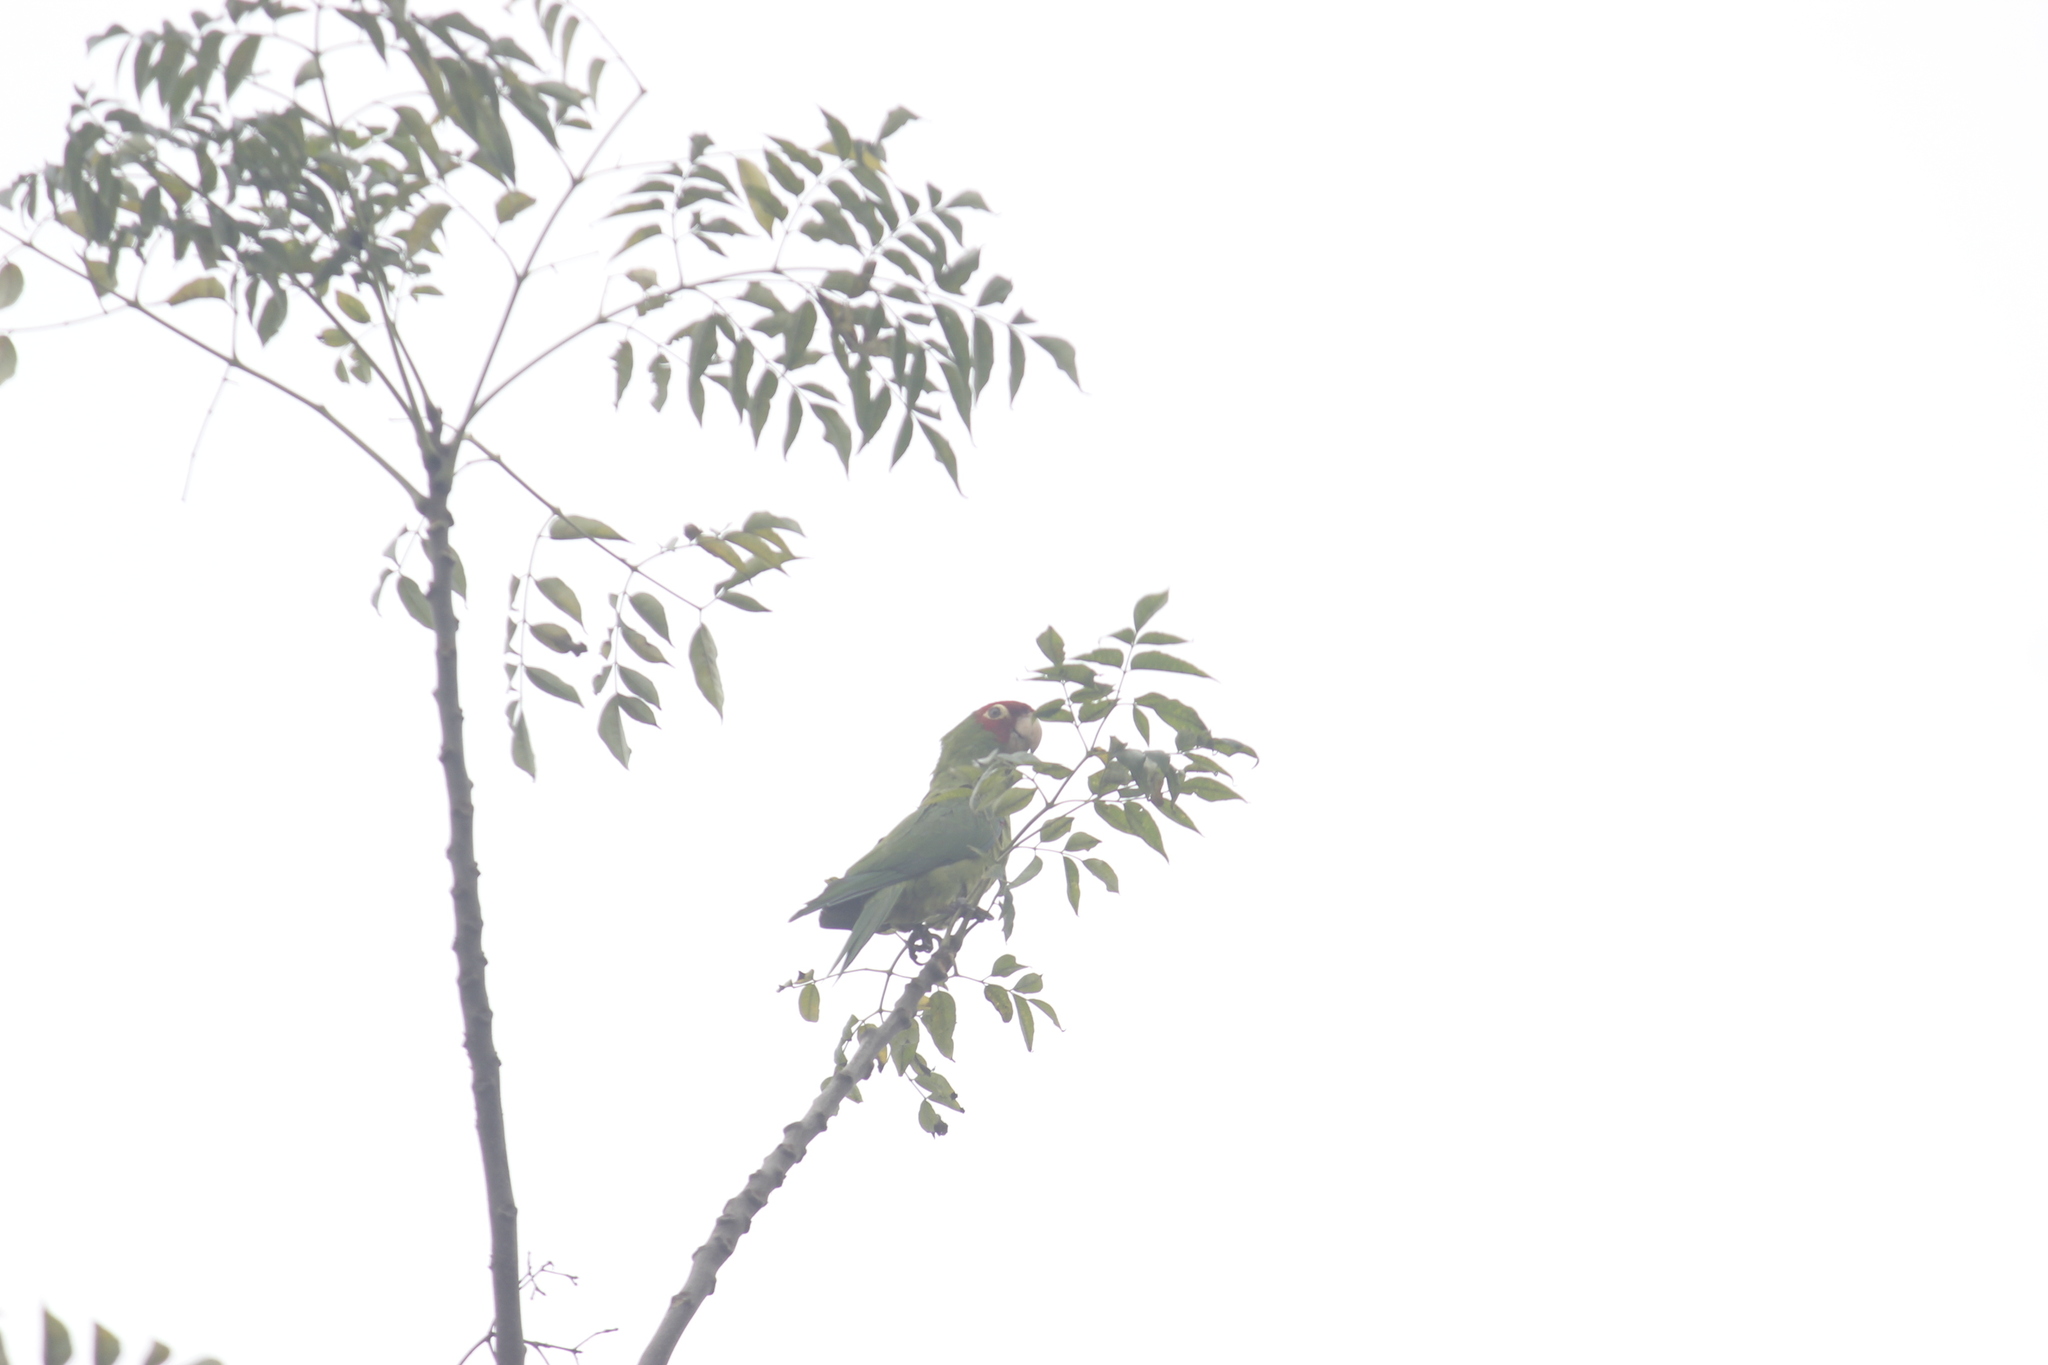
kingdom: Animalia
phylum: Chordata
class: Aves
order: Psittaciformes
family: Psittacidae
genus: Aratinga
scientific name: Aratinga erythrogenys
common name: Red-masked parakeet
